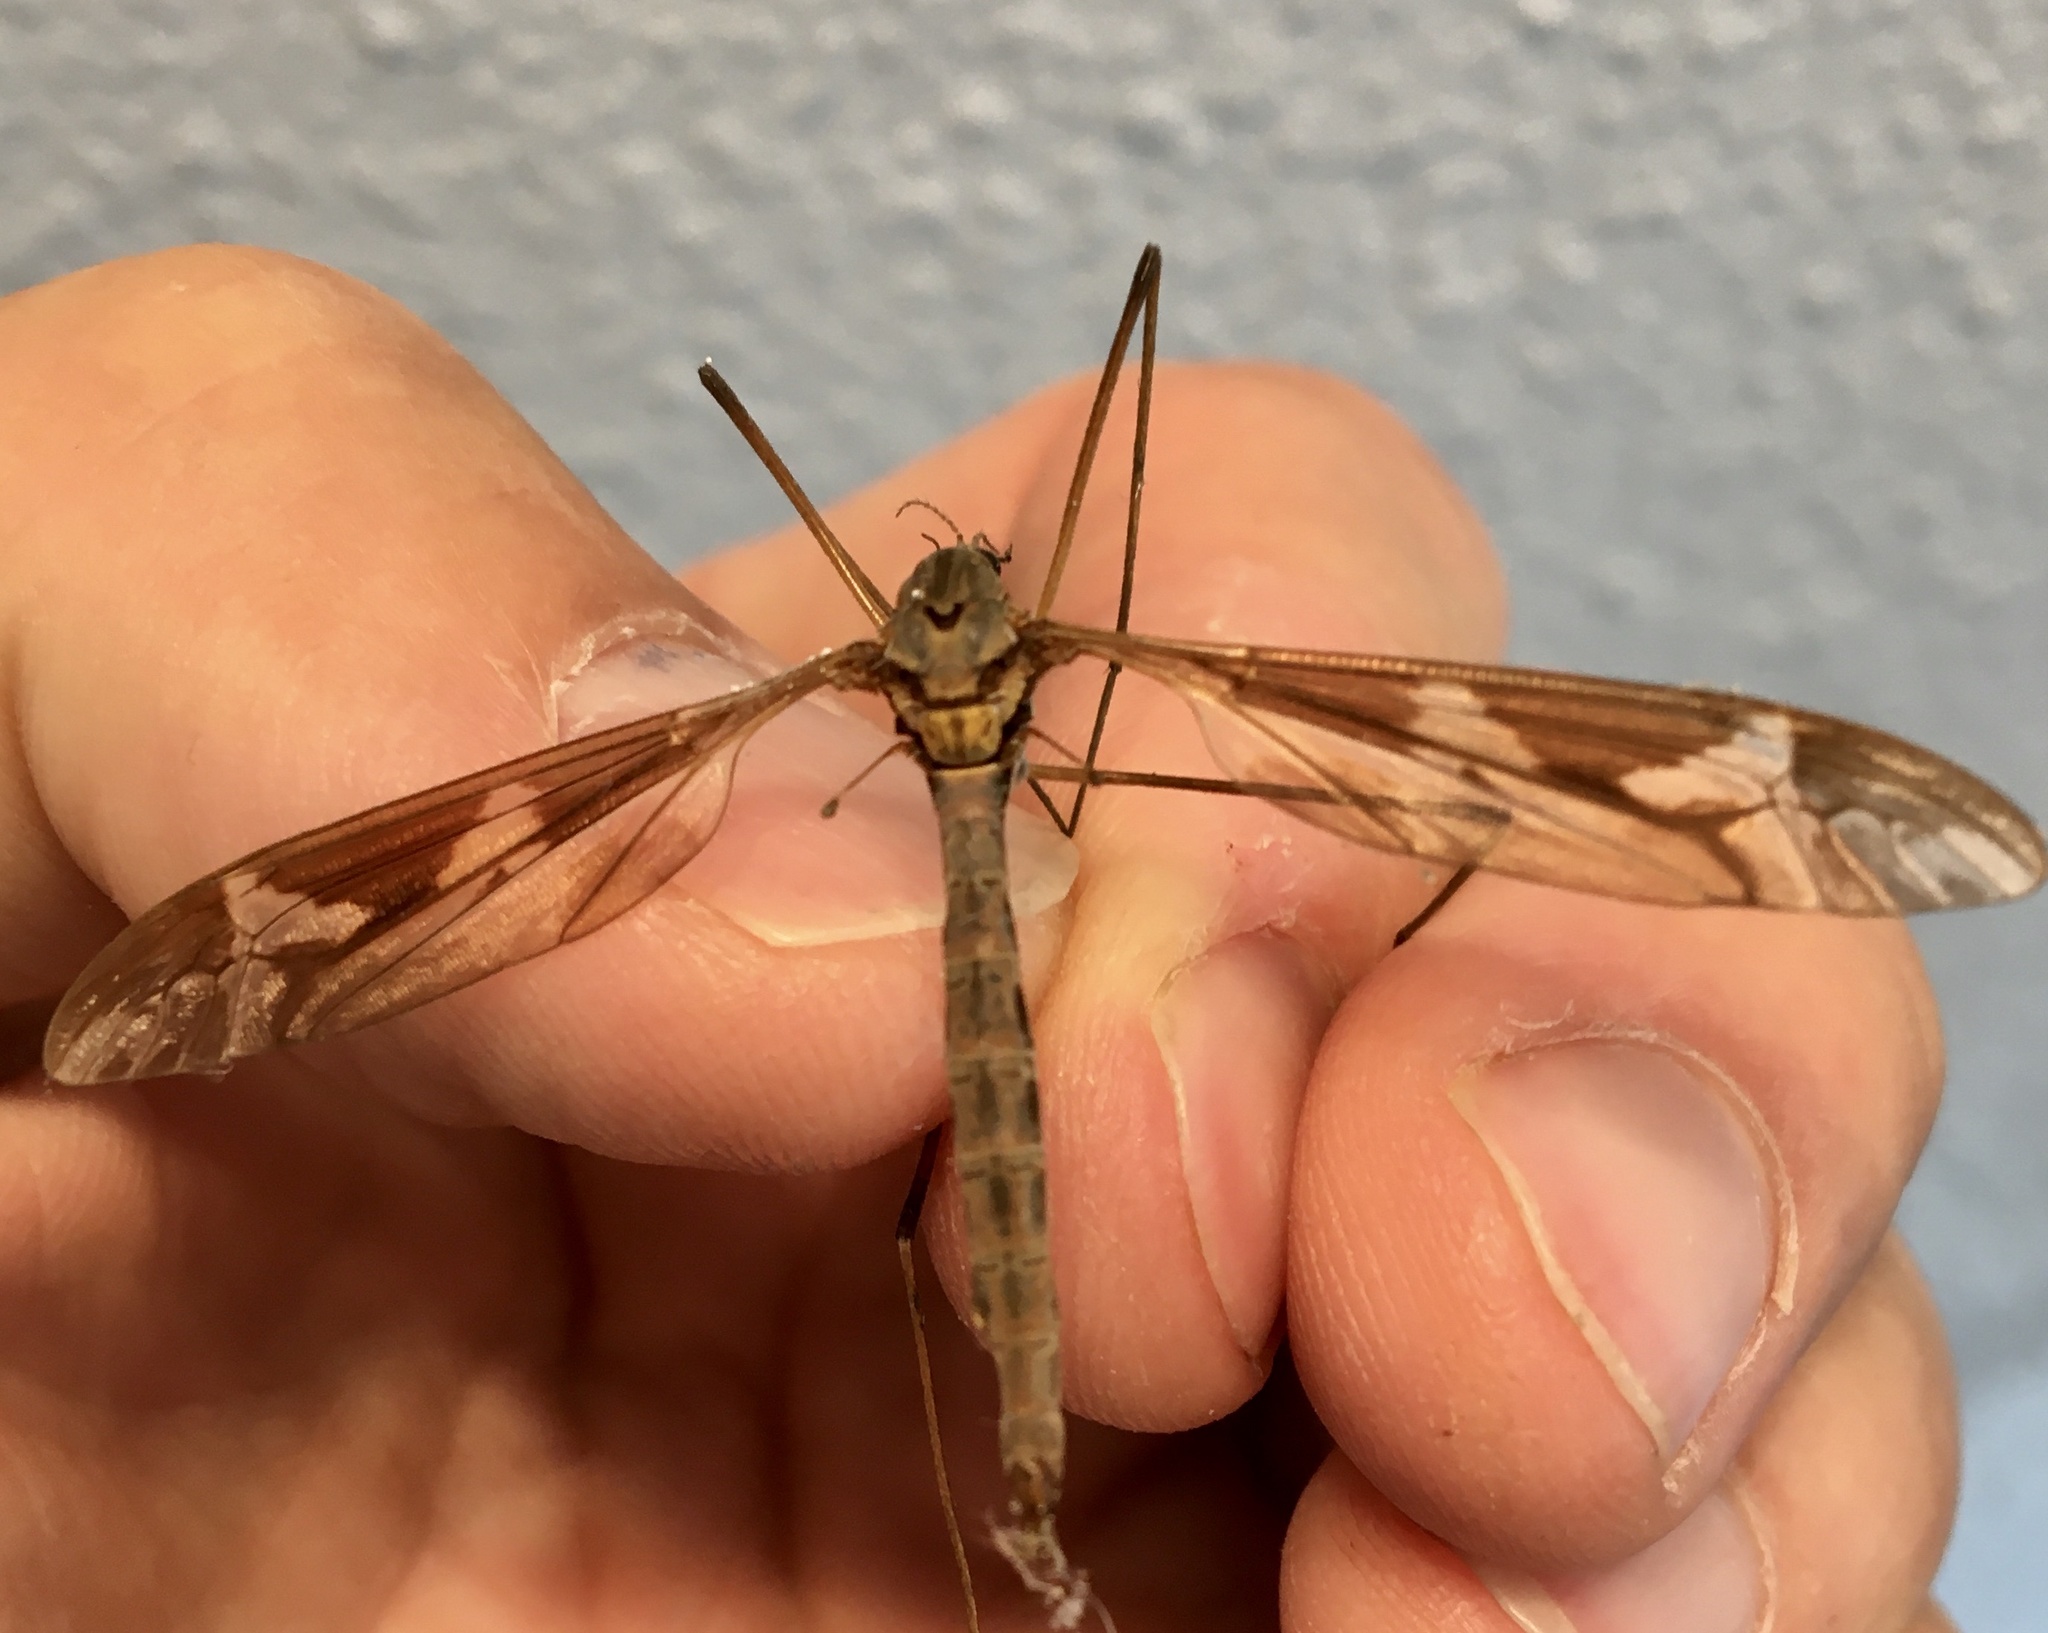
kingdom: Animalia
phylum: Arthropoda
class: Insecta
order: Diptera
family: Tipulidae
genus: Tipula
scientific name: Tipula maxima
